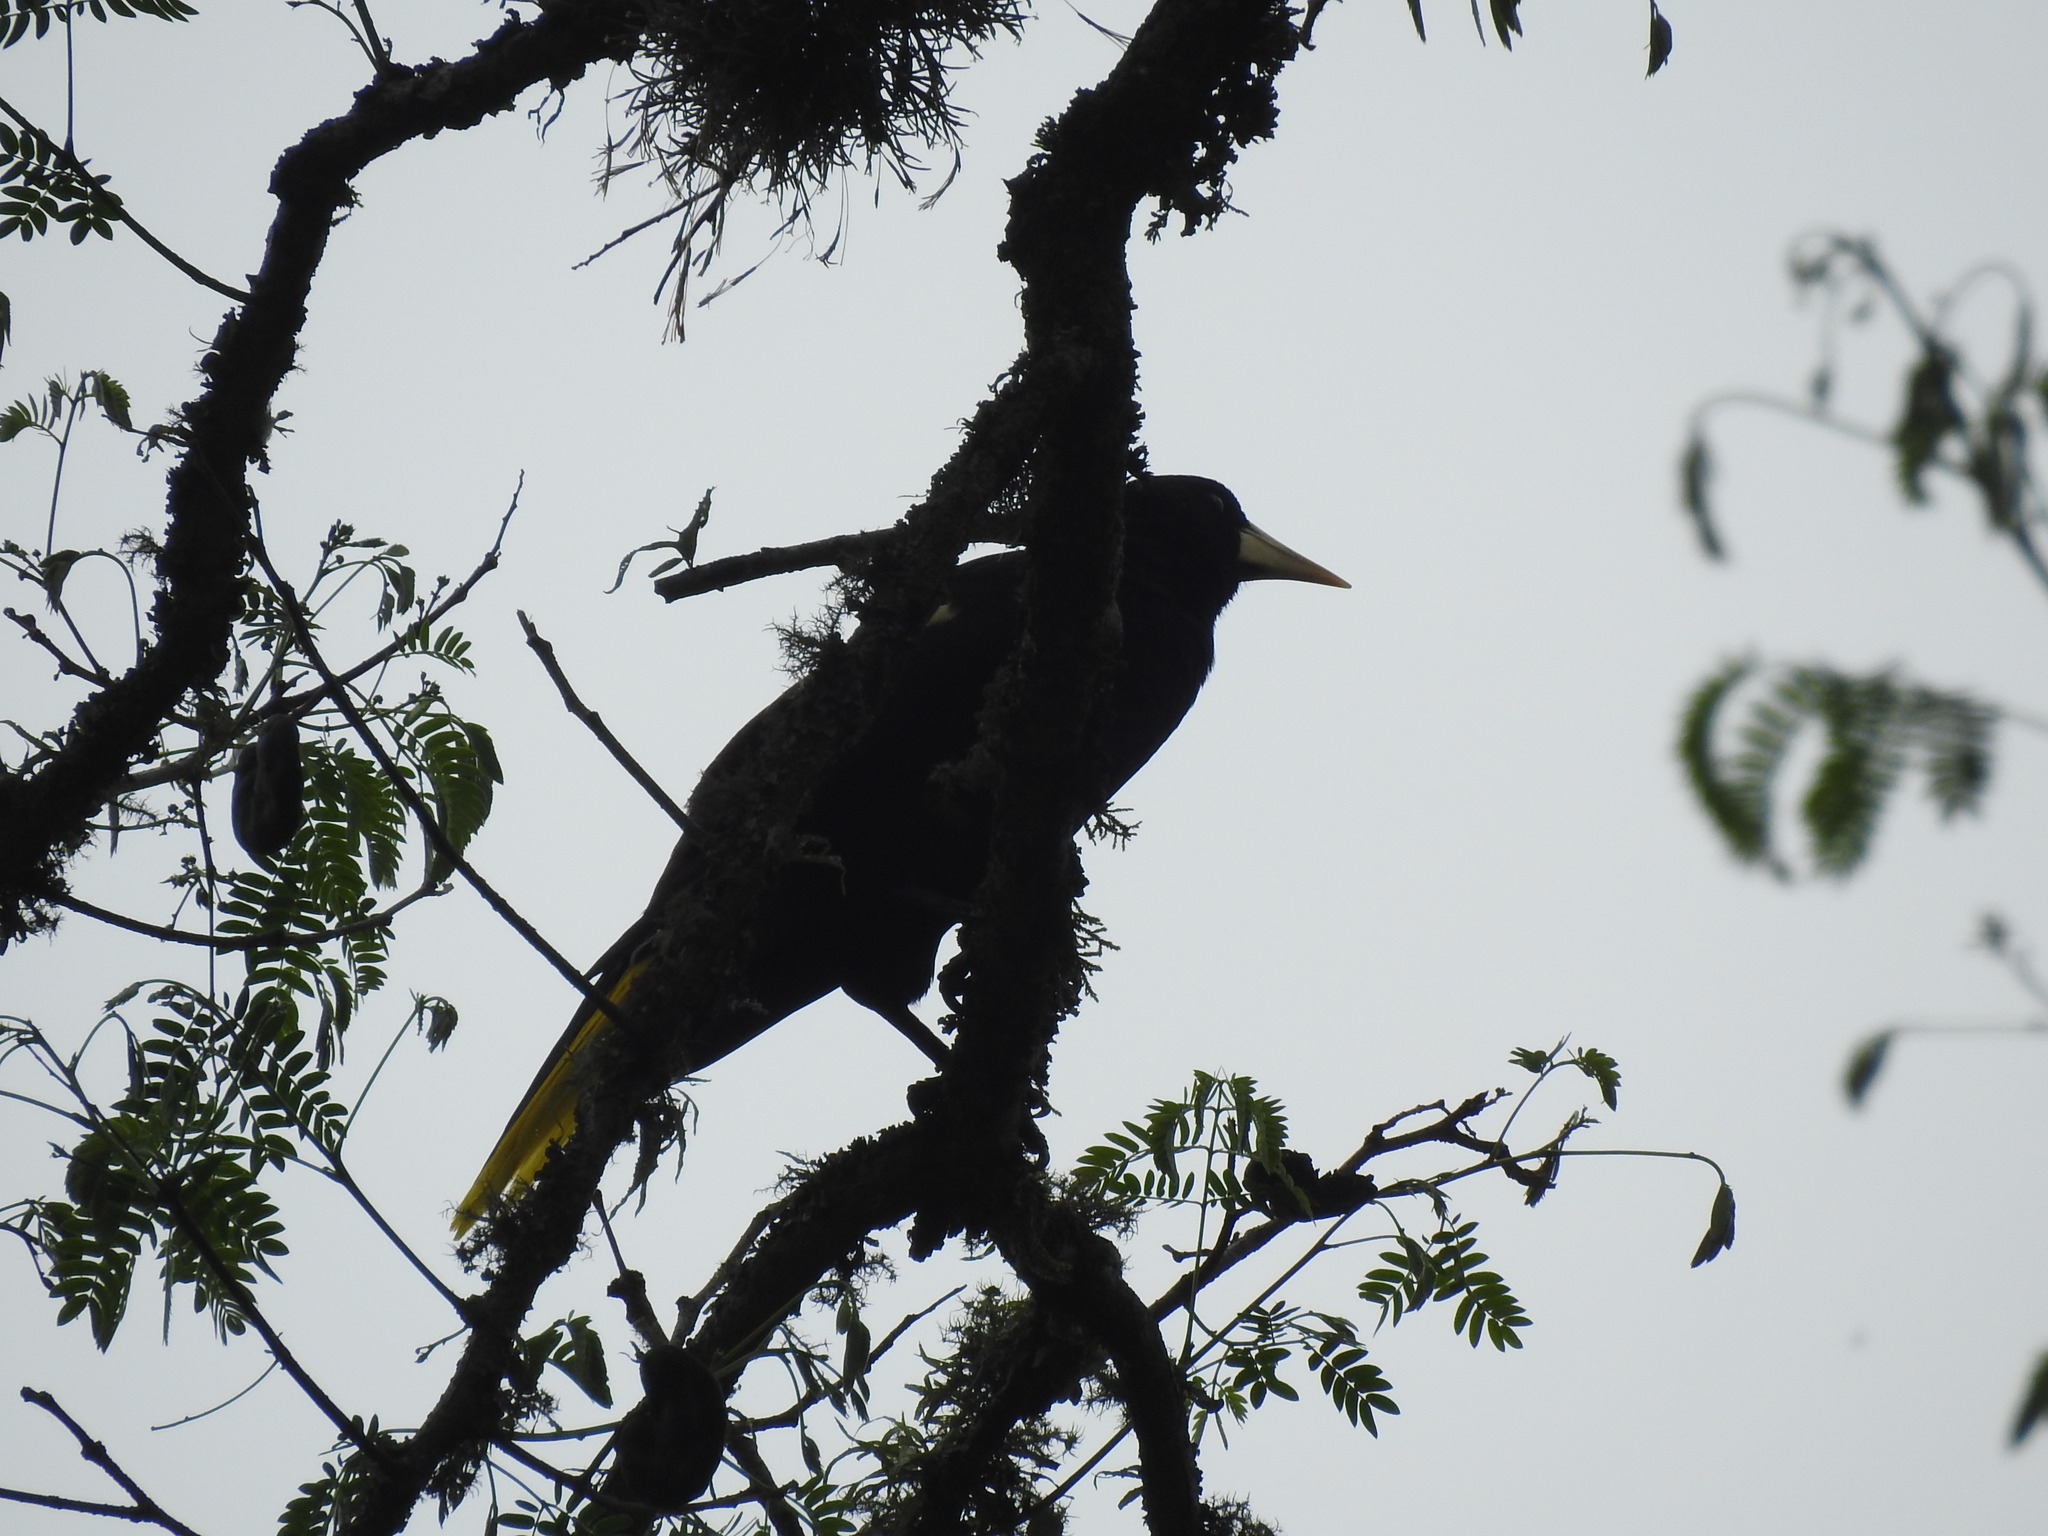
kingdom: Animalia
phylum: Chordata
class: Aves
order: Passeriformes
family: Icteridae
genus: Psarocolius
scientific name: Psarocolius decumanus
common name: Crested oropendola
